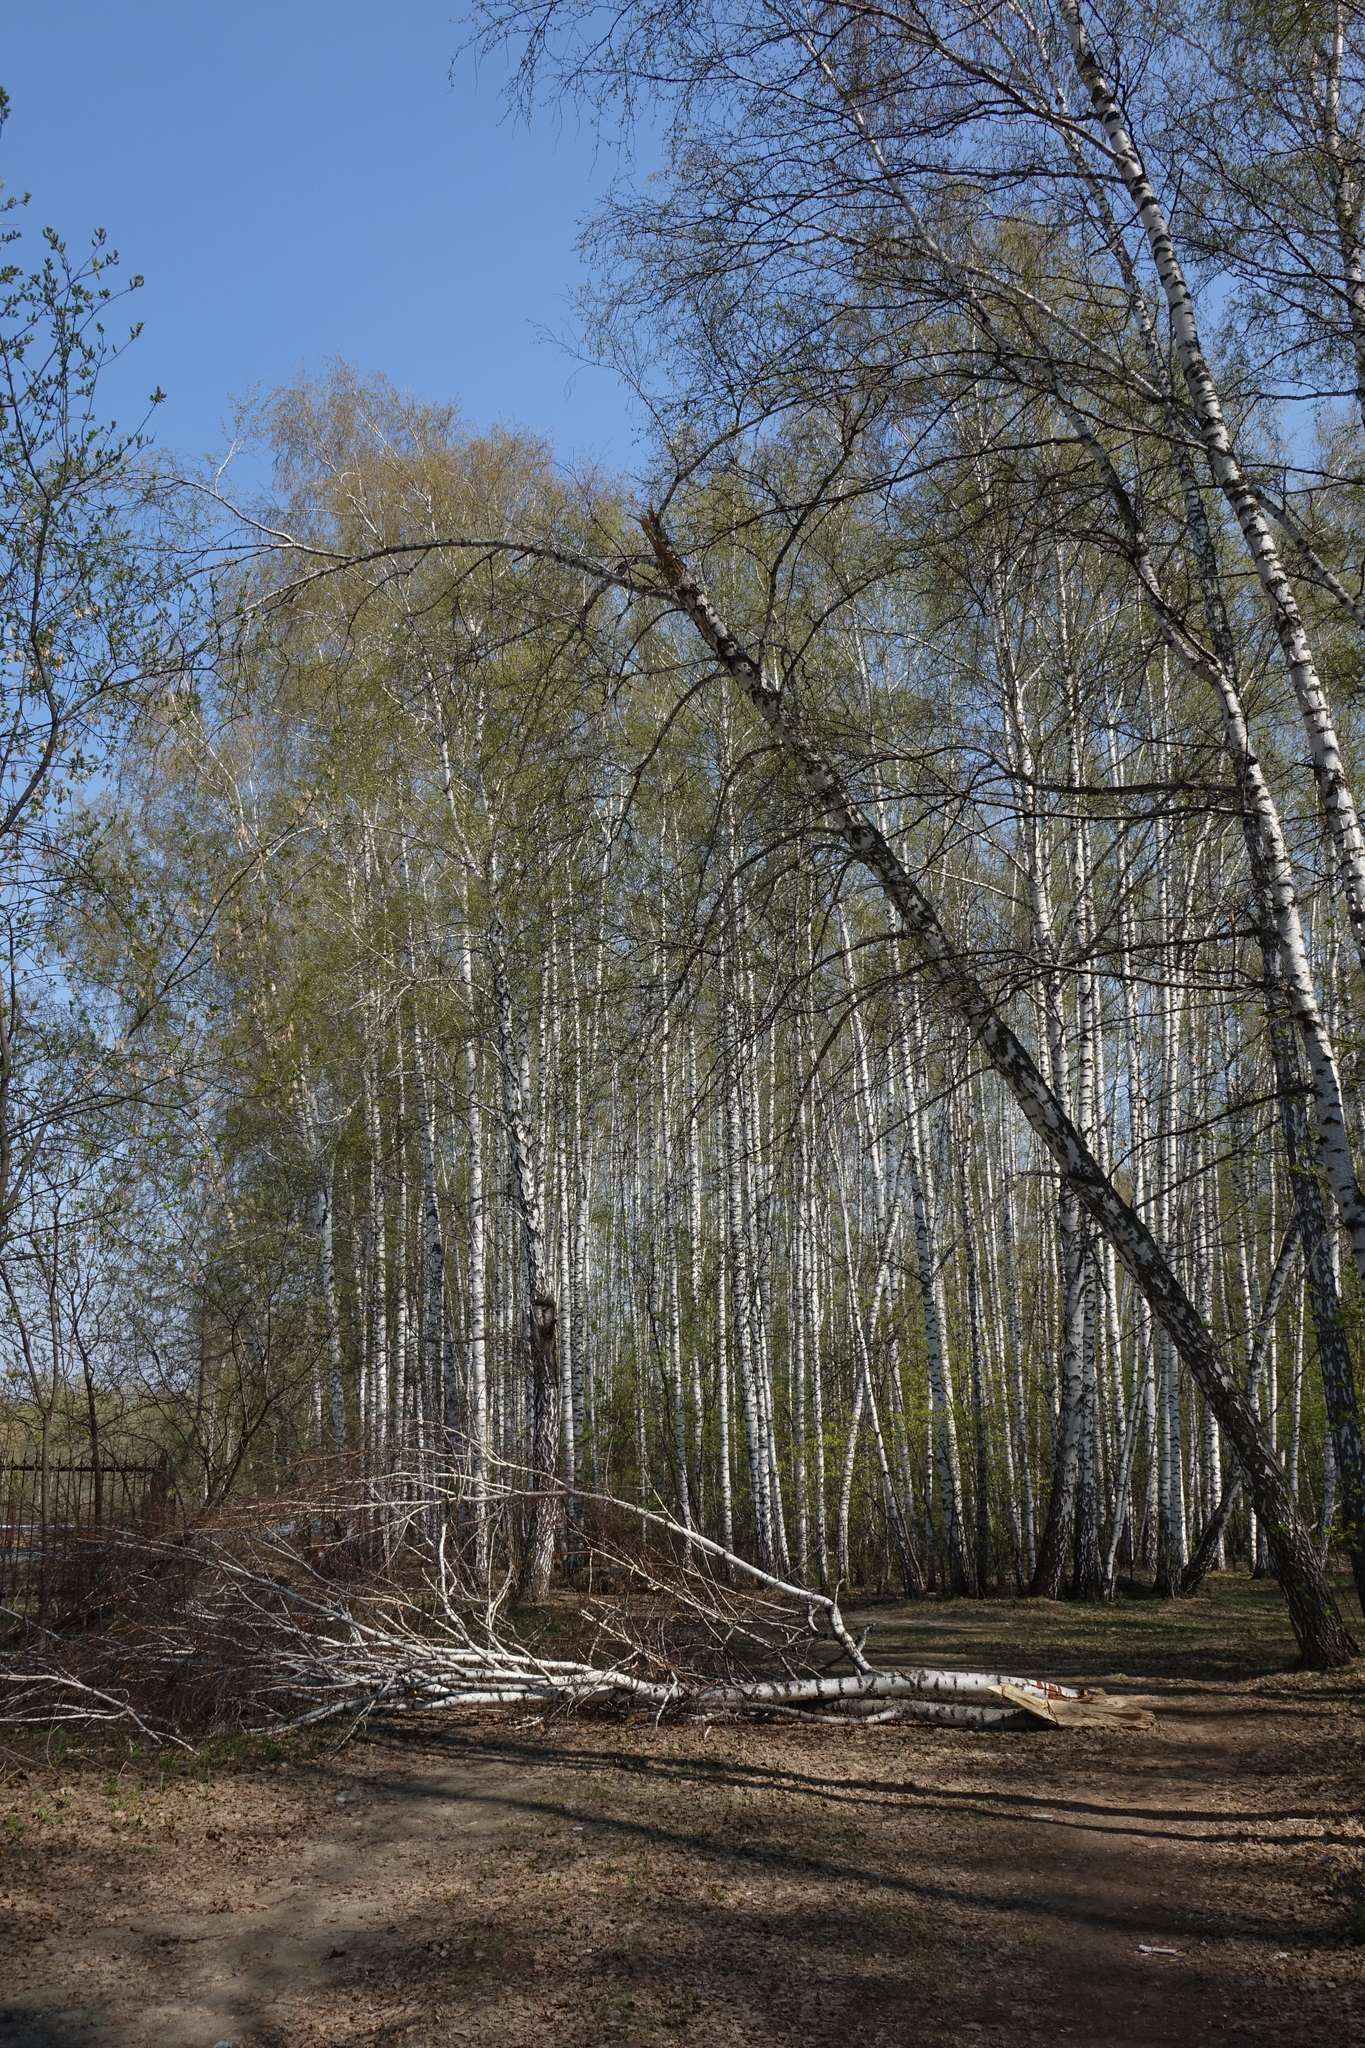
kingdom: Plantae
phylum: Tracheophyta
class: Magnoliopsida
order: Fagales
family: Betulaceae
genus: Betula
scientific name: Betula pendula
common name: Silver birch
